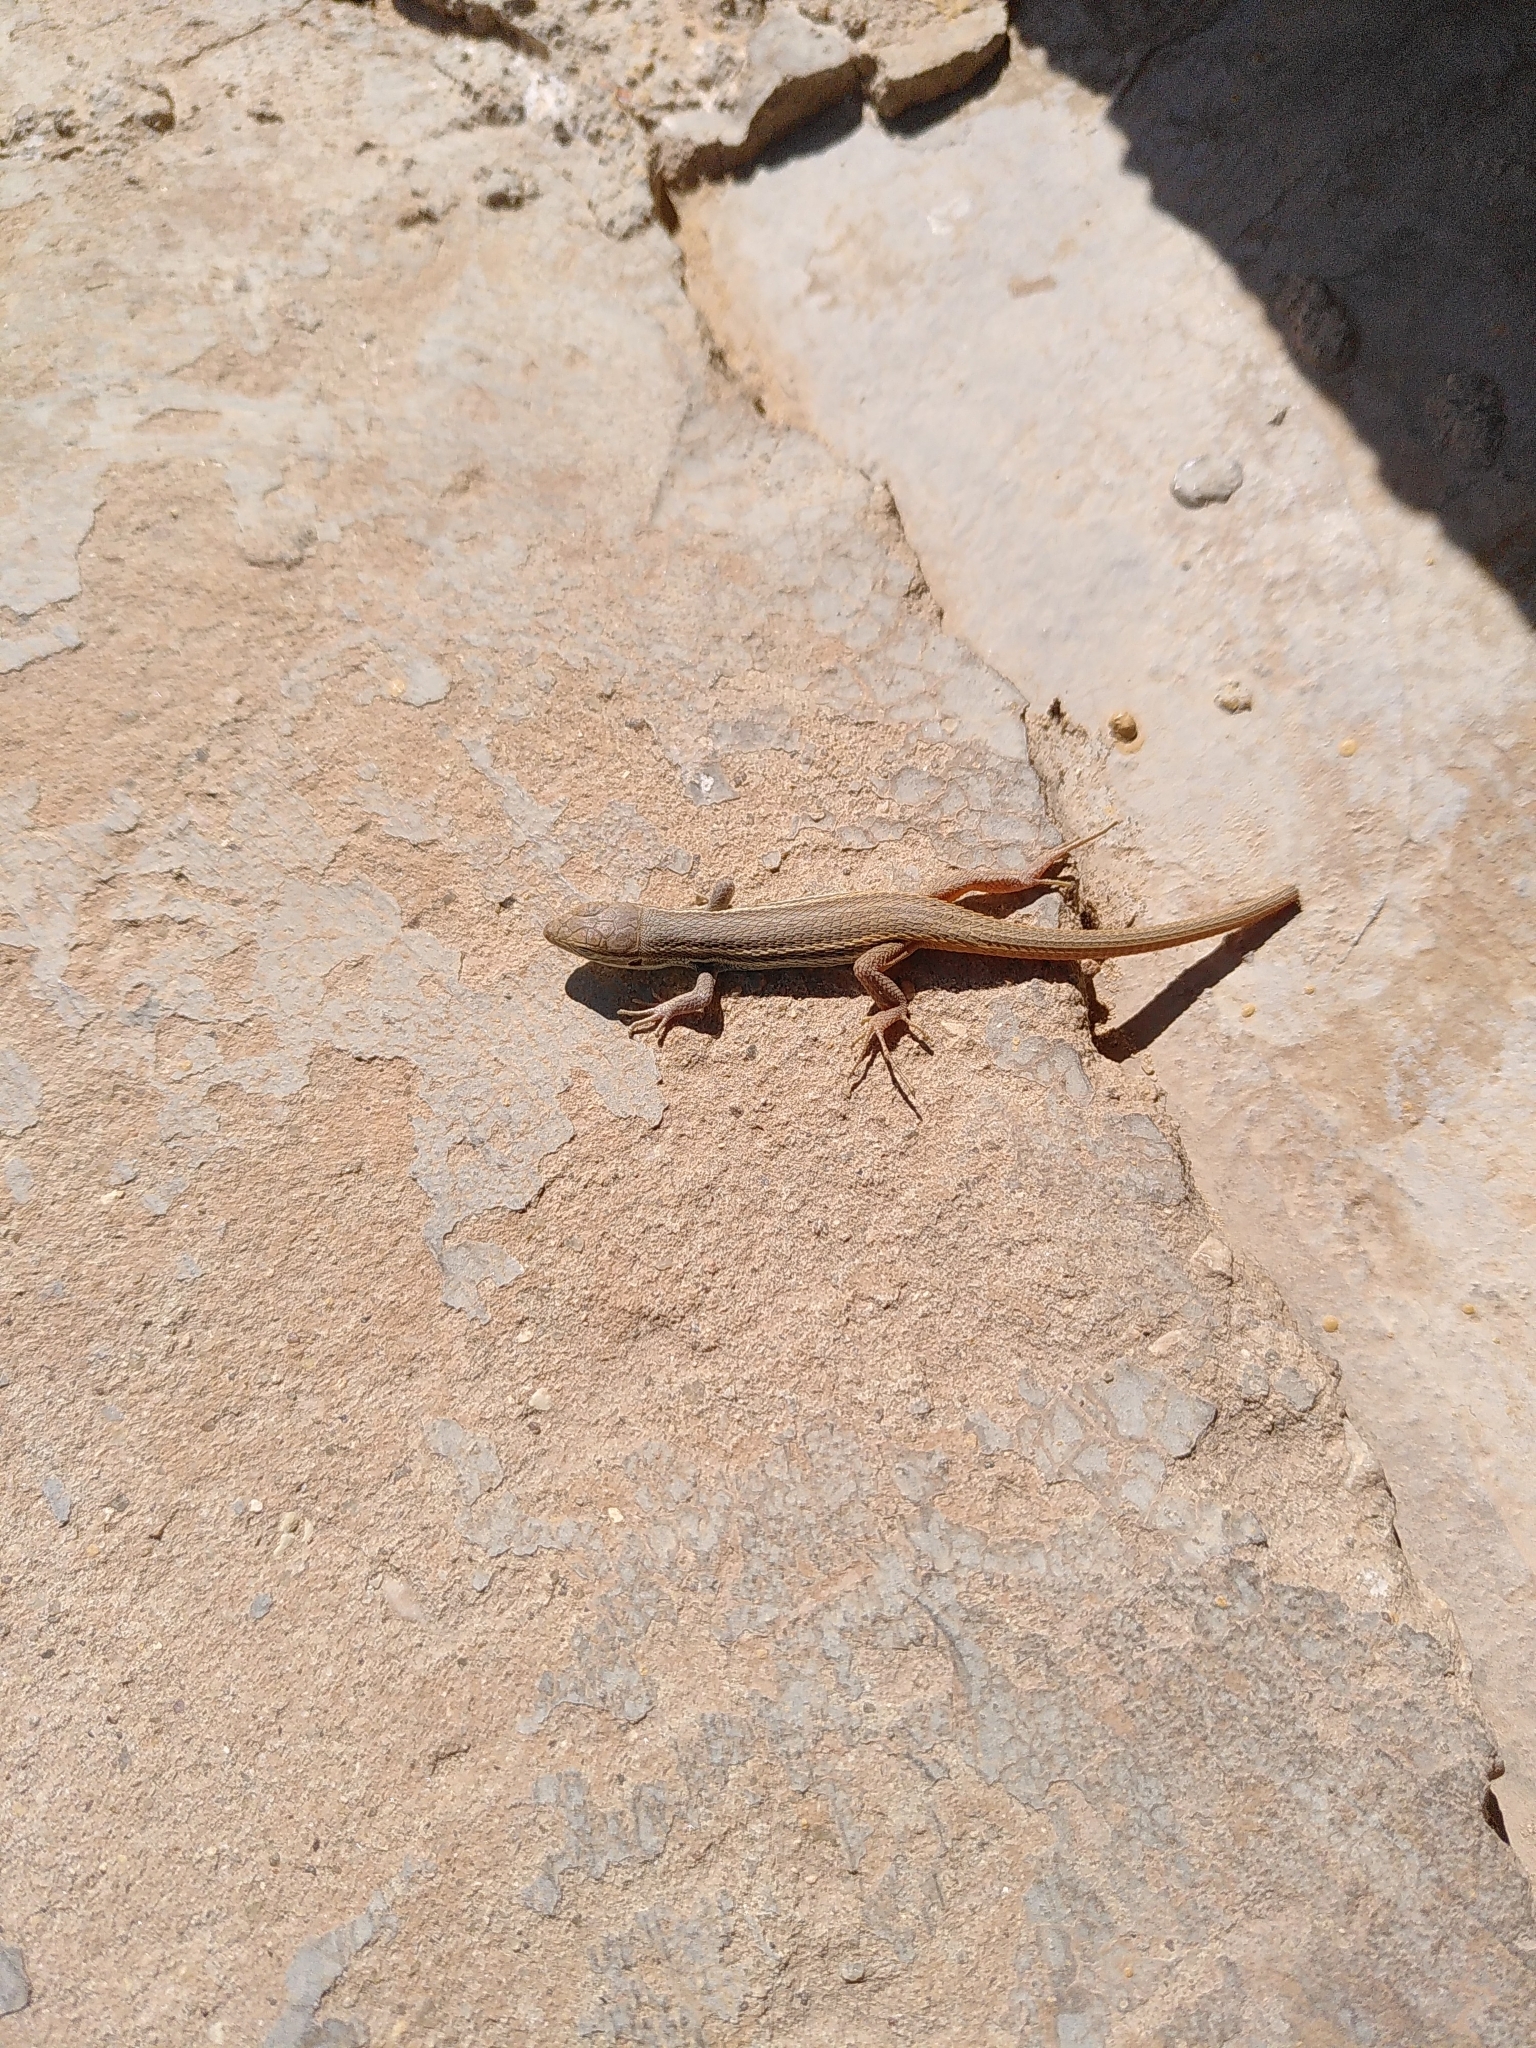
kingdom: Animalia
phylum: Chordata
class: Squamata
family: Lacertidae
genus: Psammodromus
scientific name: Psammodromus algirus
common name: Algerian psammodromus
